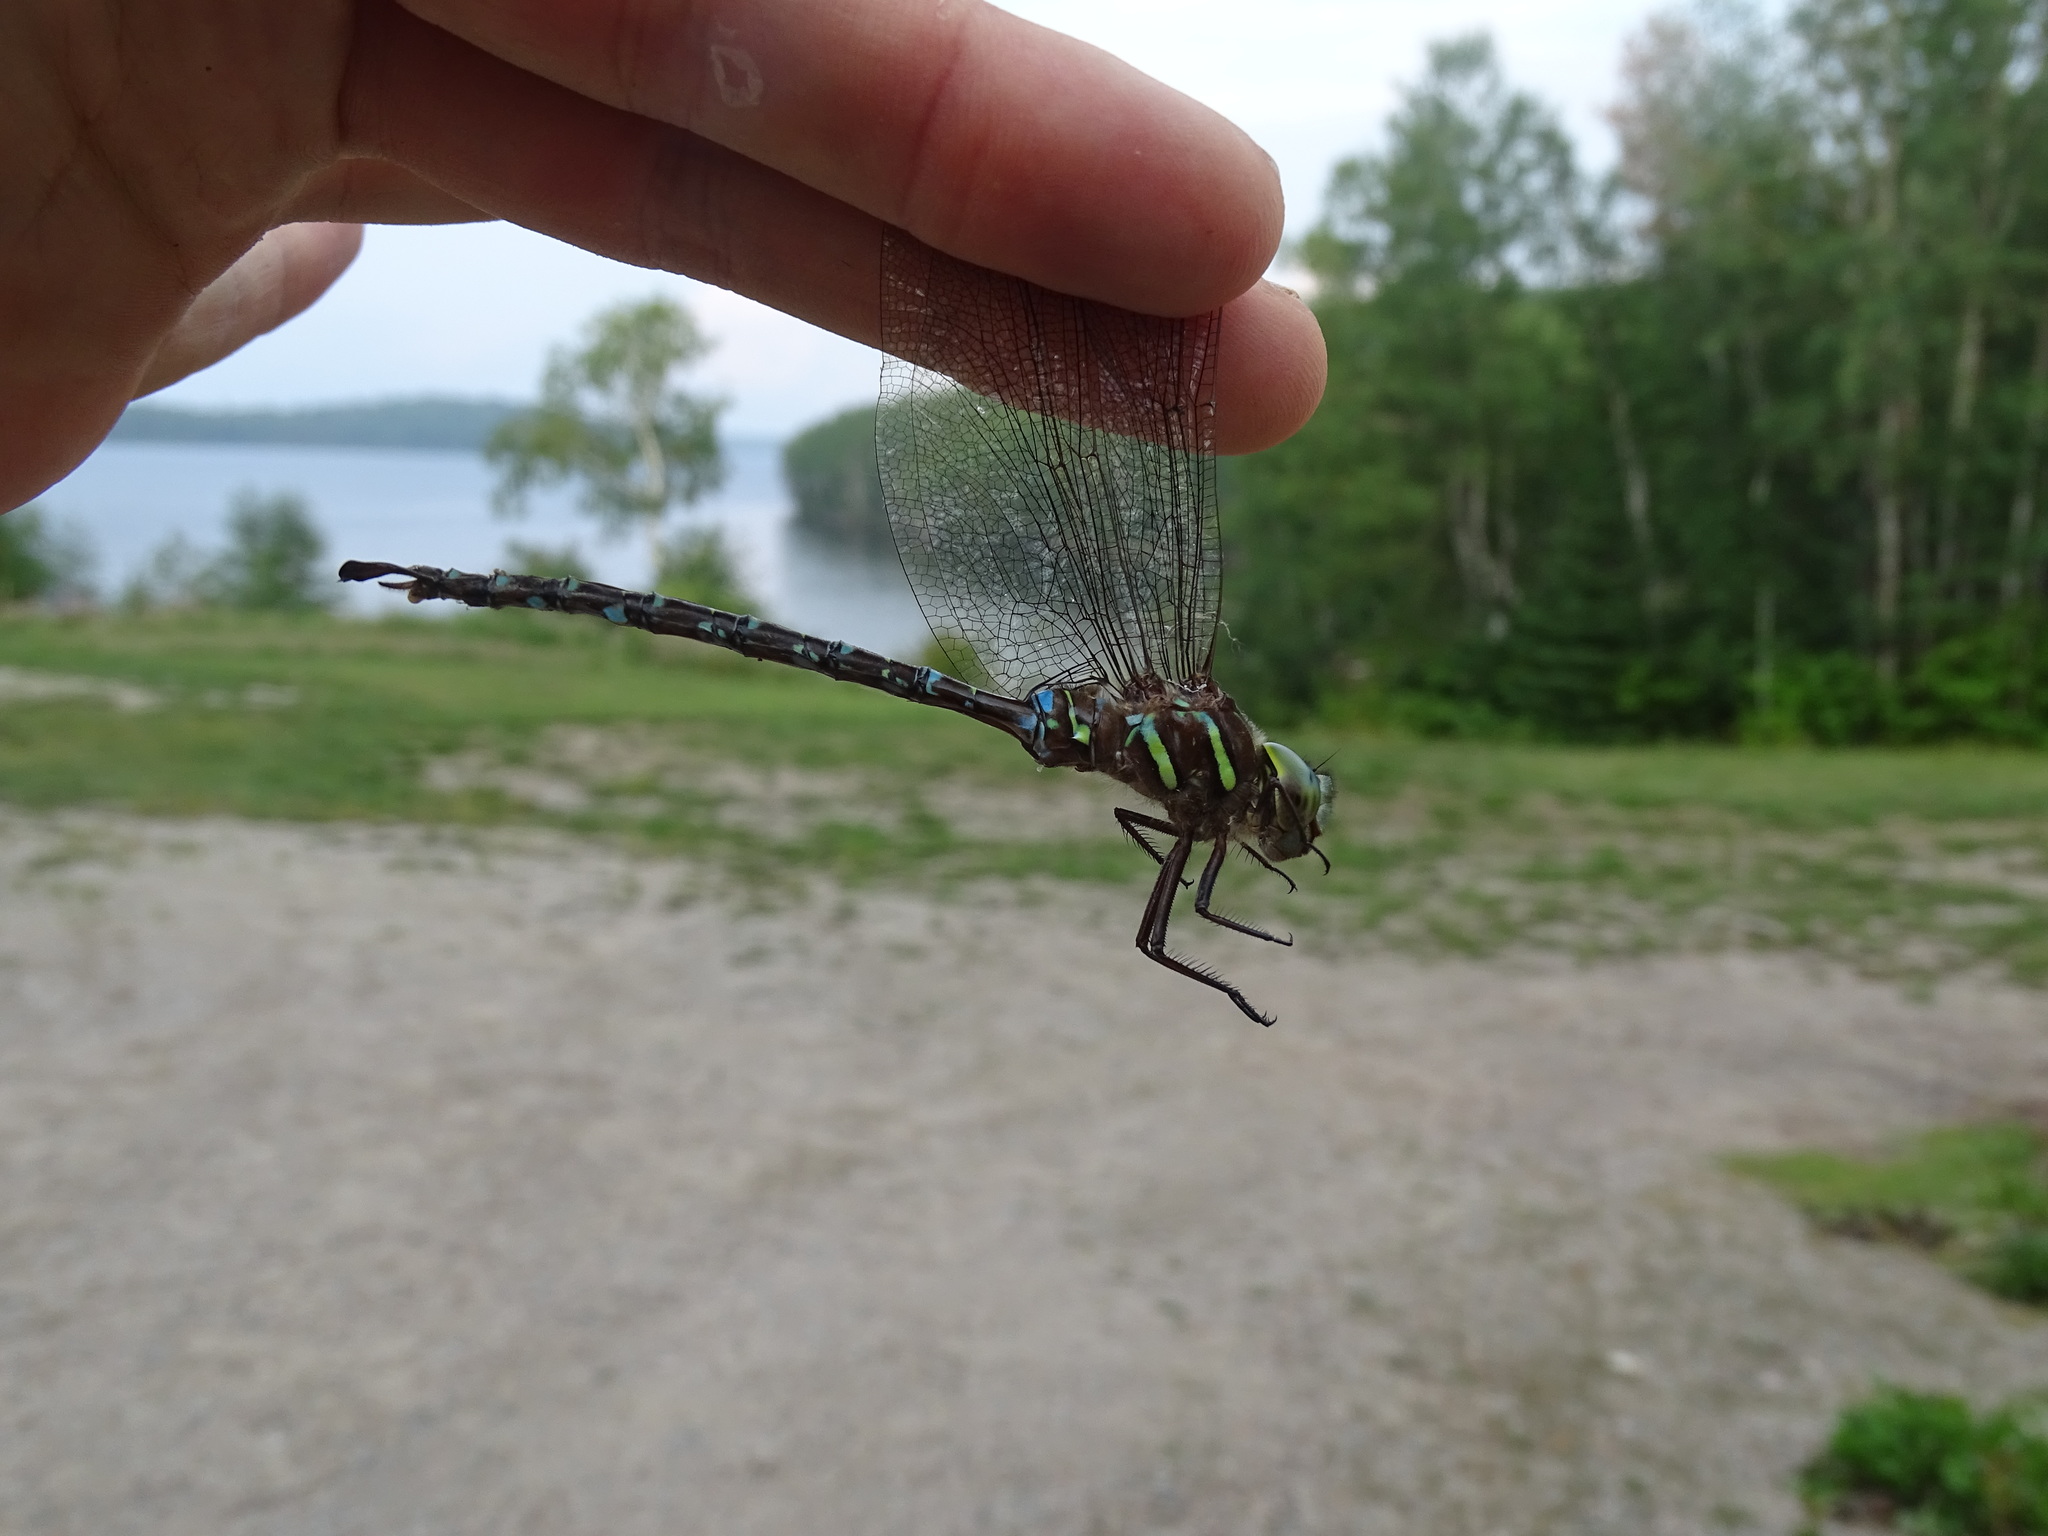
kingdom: Animalia
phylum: Arthropoda
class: Insecta
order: Odonata
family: Aeshnidae
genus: Aeshna
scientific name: Aeshna umbrosa
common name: Shadow darner
